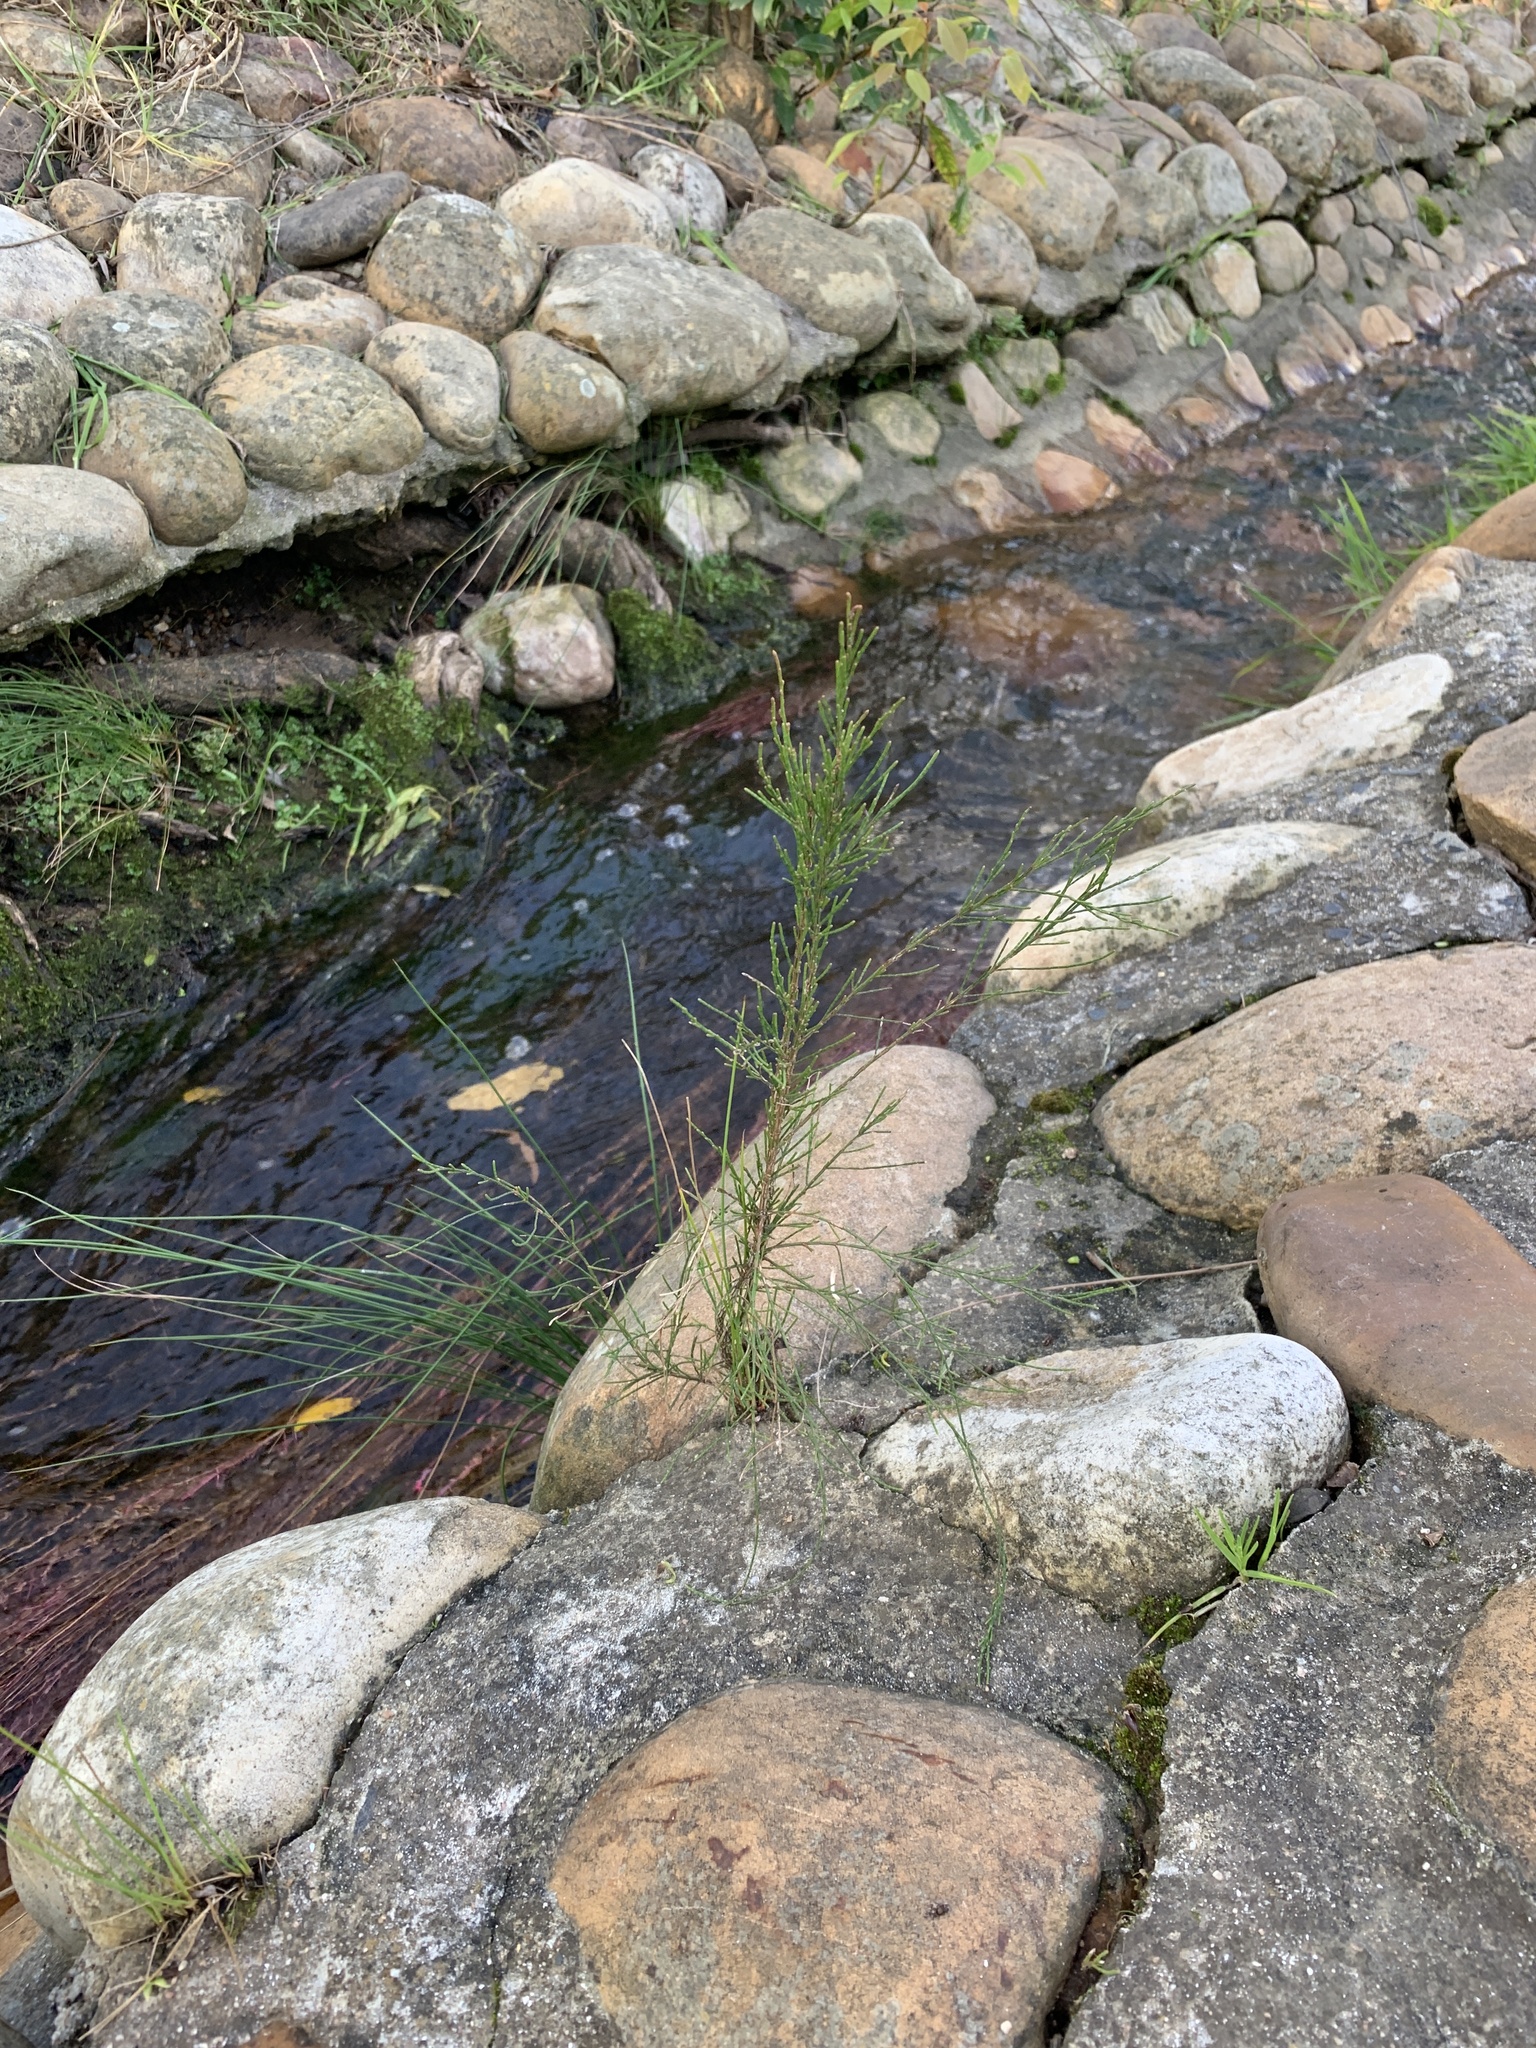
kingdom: Plantae
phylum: Tracheophyta
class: Magnoliopsida
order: Fagales
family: Casuarinaceae
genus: Casuarina
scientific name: Casuarina cunninghamiana
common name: River sheoak
